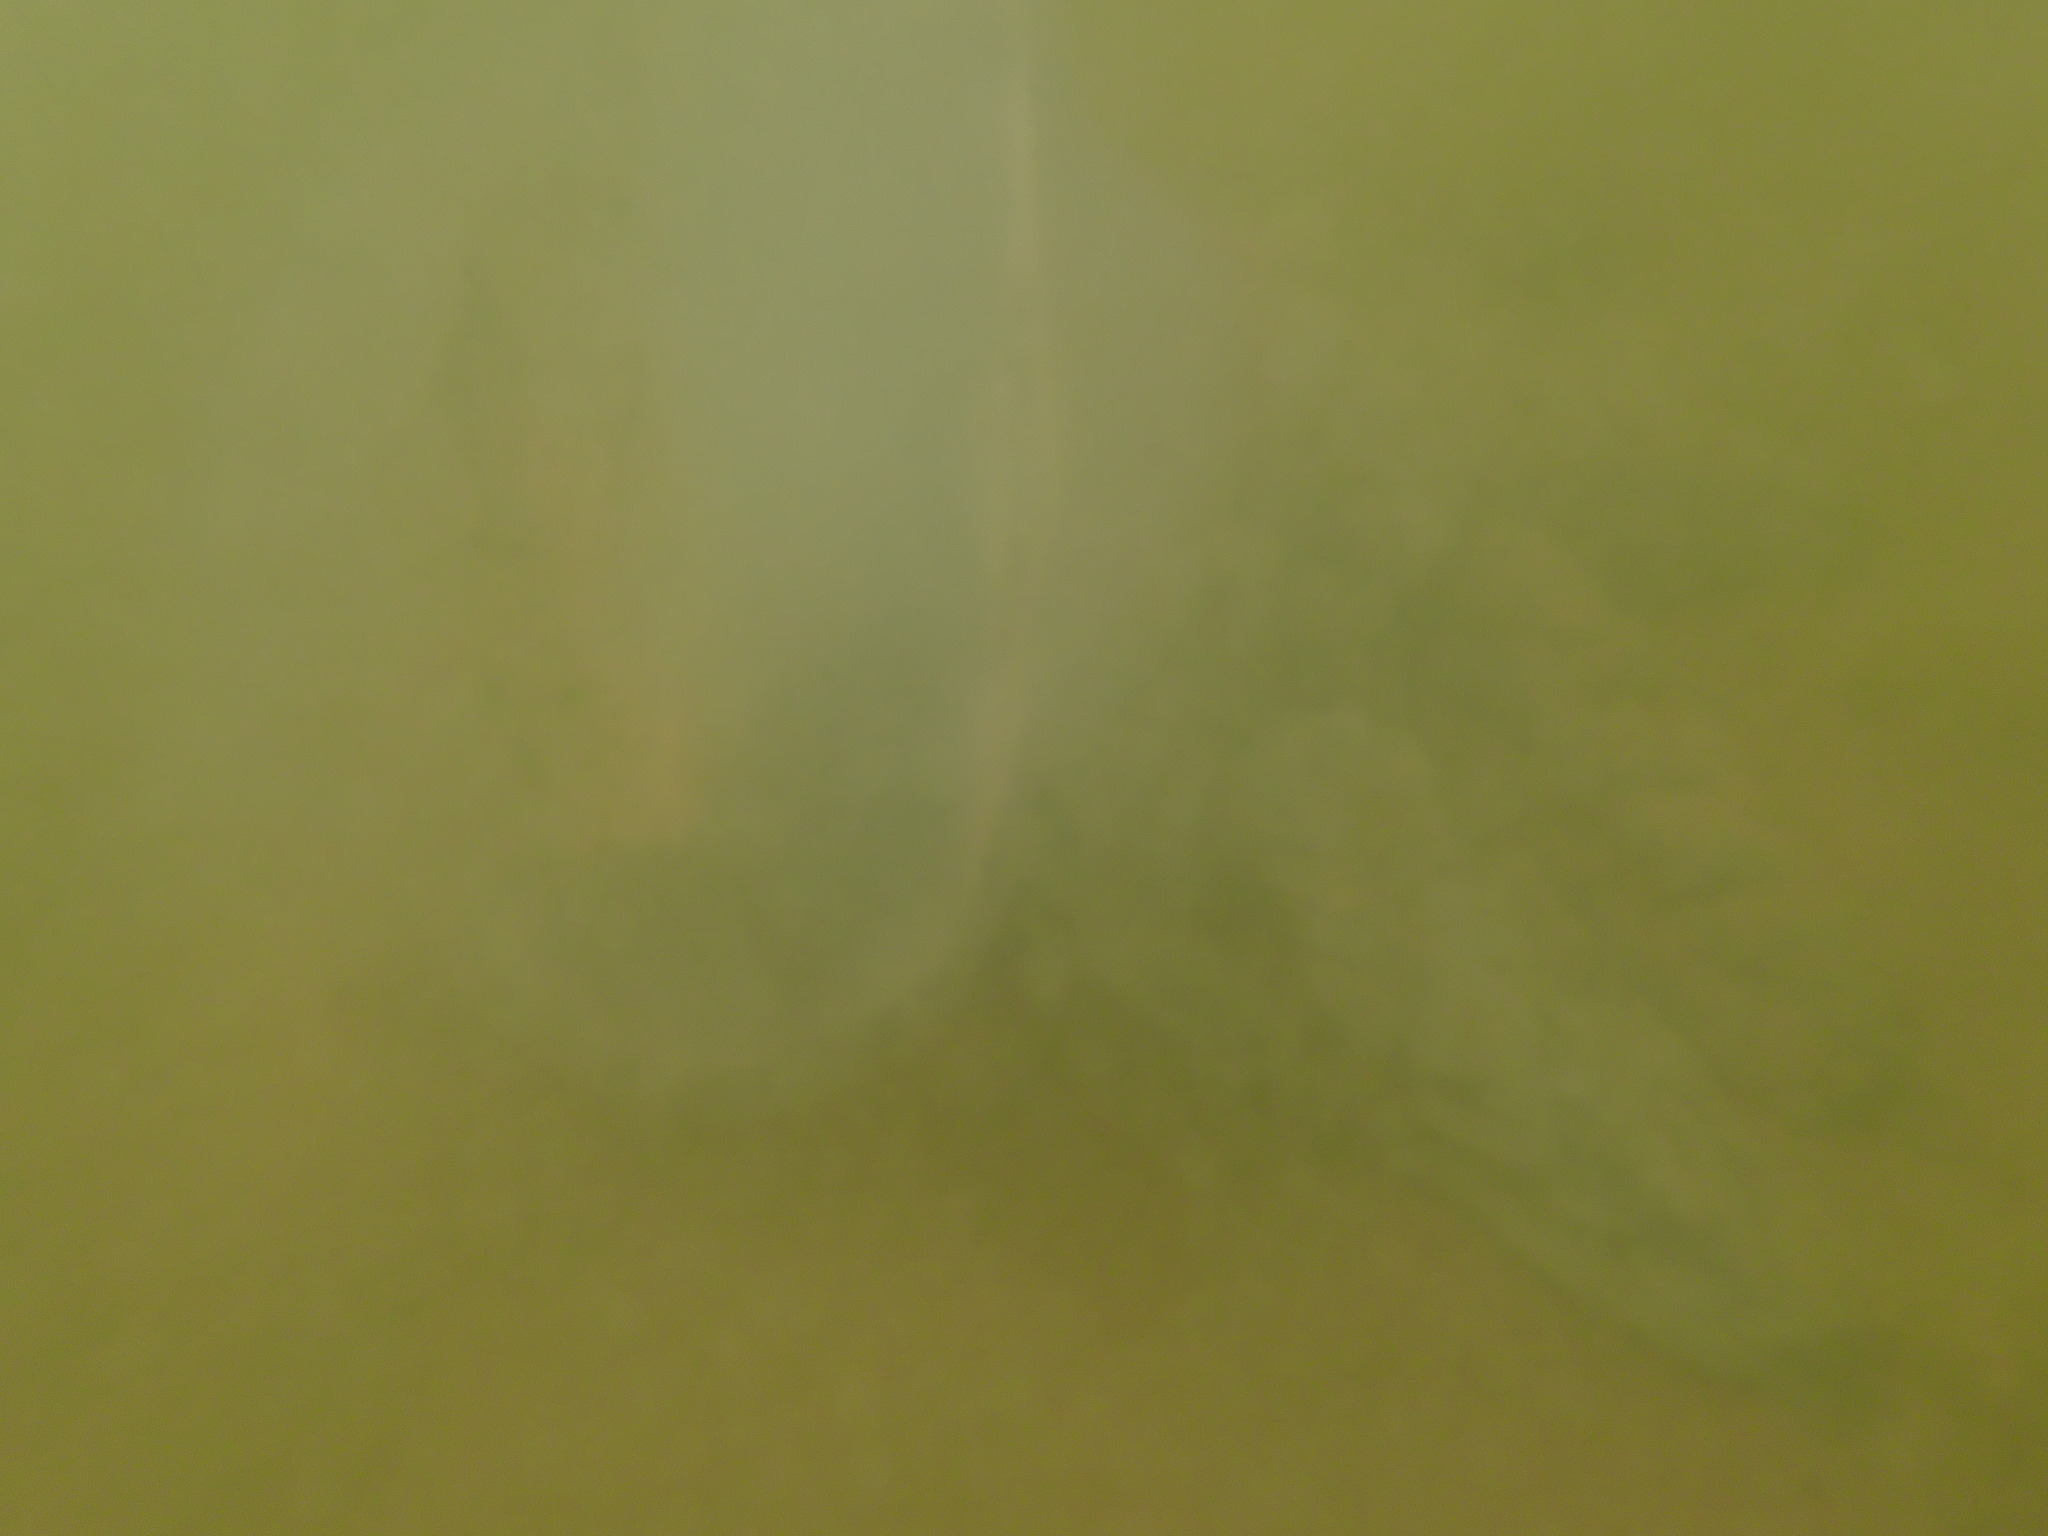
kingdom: Animalia
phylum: Cnidaria
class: Scyphozoa
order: Rhizostomeae
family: Rhizostomatidae
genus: Rhizostoma
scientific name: Rhizostoma pulmo
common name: Barrel jellyfish
